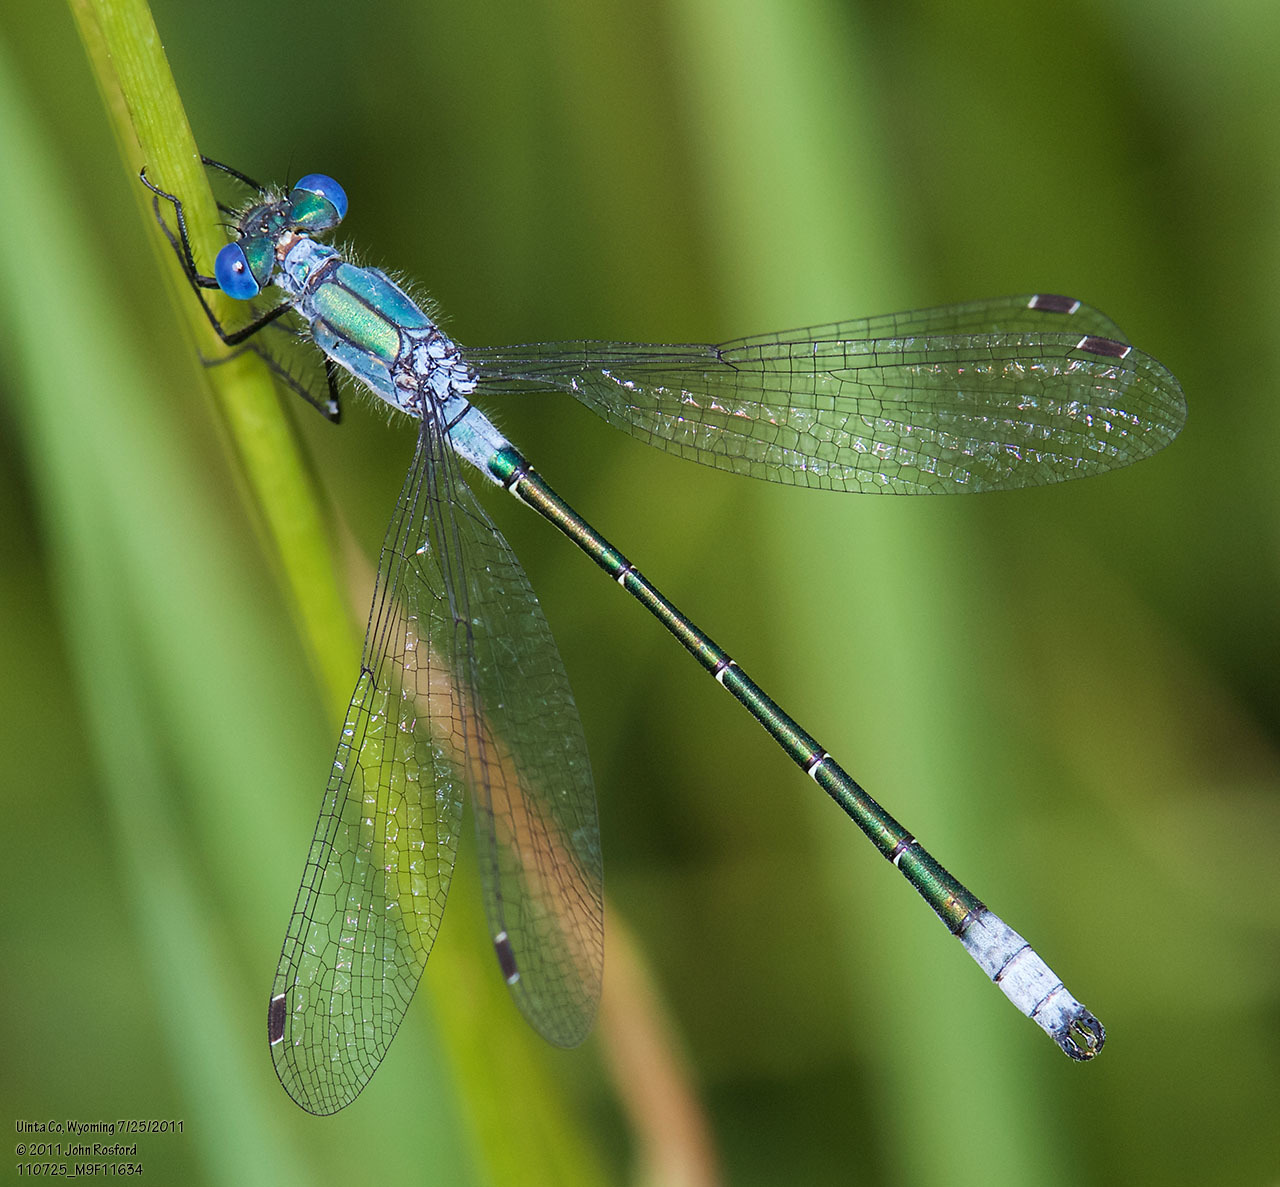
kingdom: Animalia
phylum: Arthropoda
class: Insecta
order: Odonata
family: Lestidae
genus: Lestes
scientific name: Lestes dryas
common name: Scarce emerald damselfly
